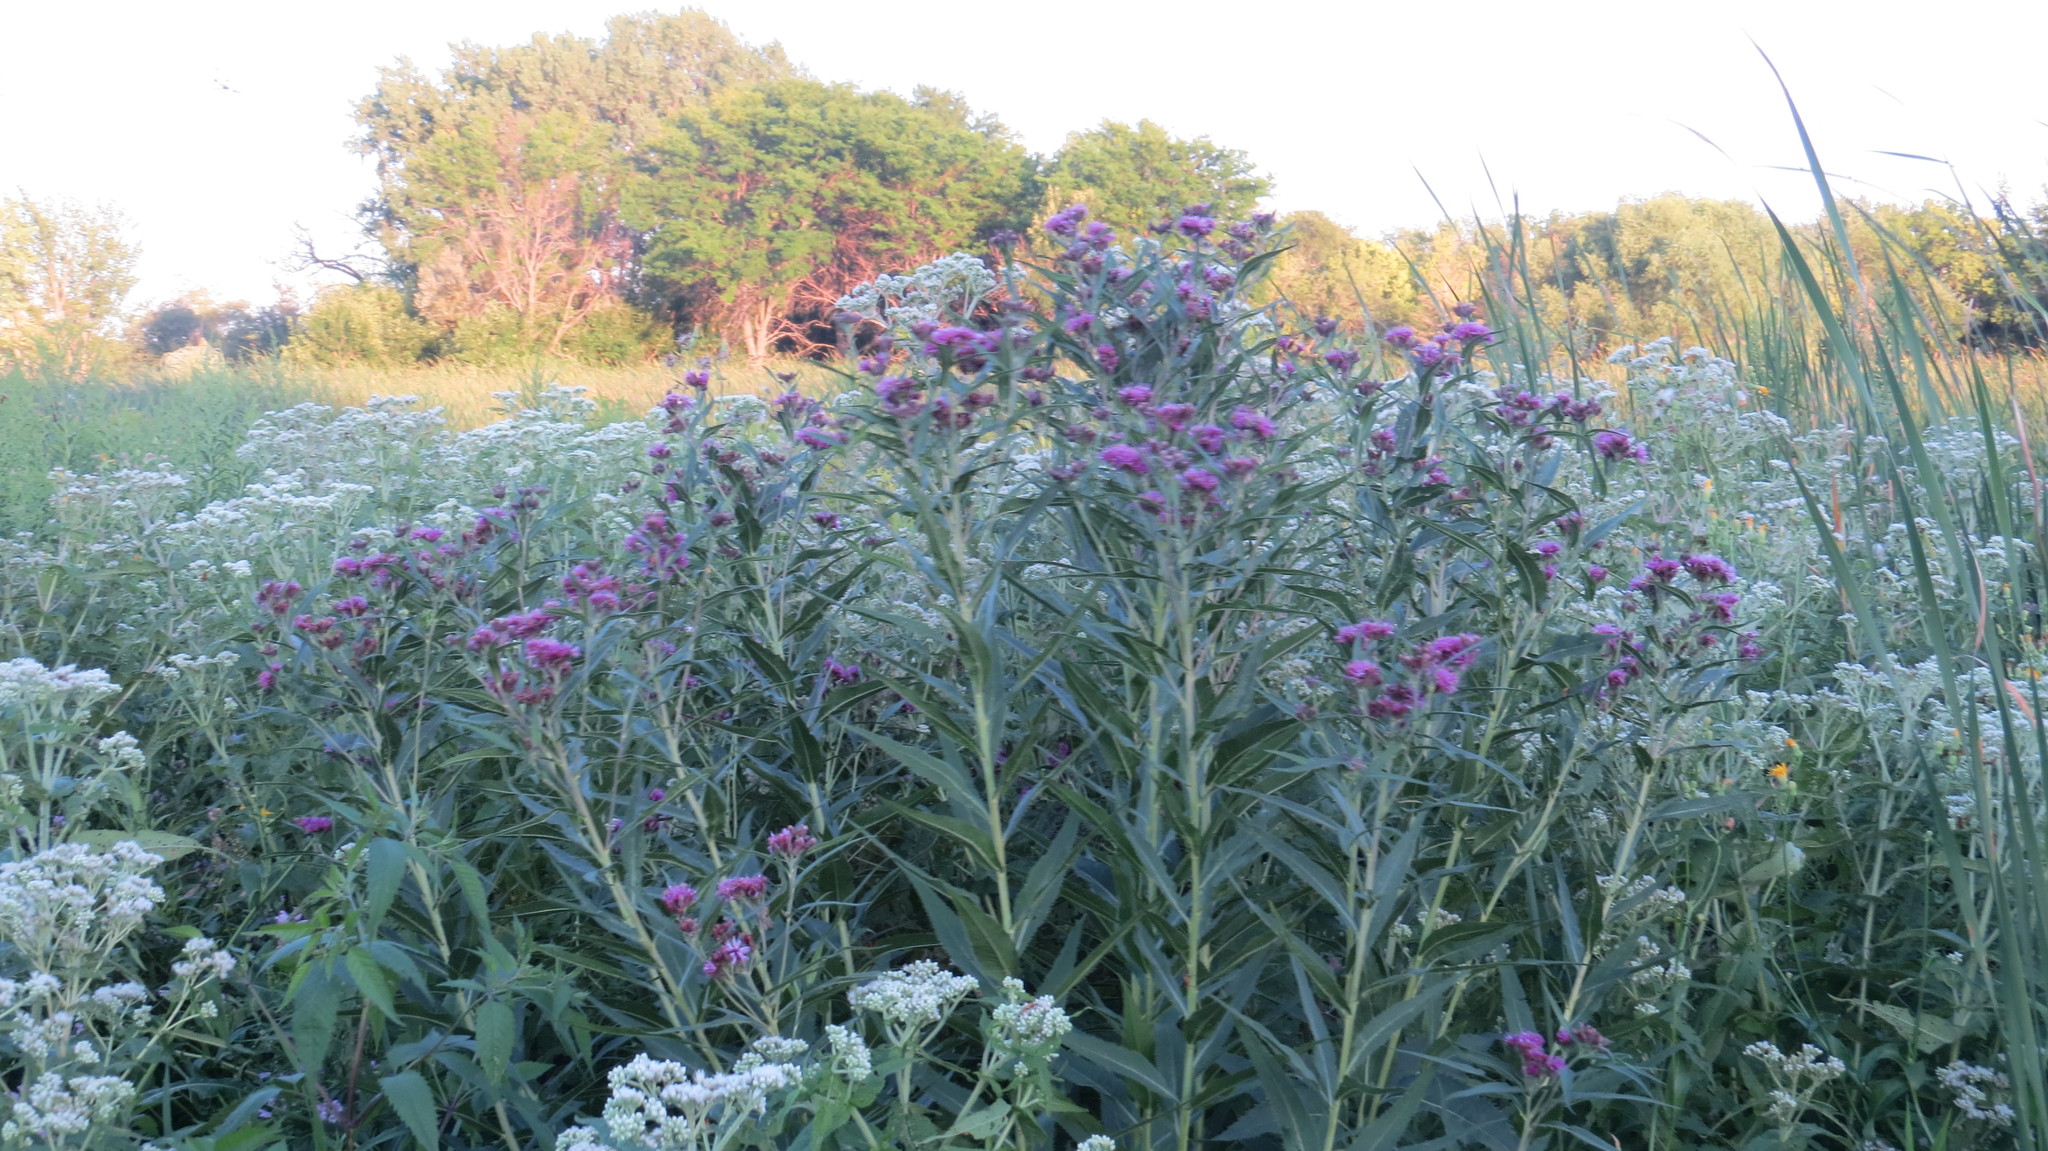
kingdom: Plantae
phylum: Tracheophyta
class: Magnoliopsida
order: Asterales
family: Asteraceae
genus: Vernonia
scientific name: Vernonia fasciculata
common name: Fascicled ironweed
